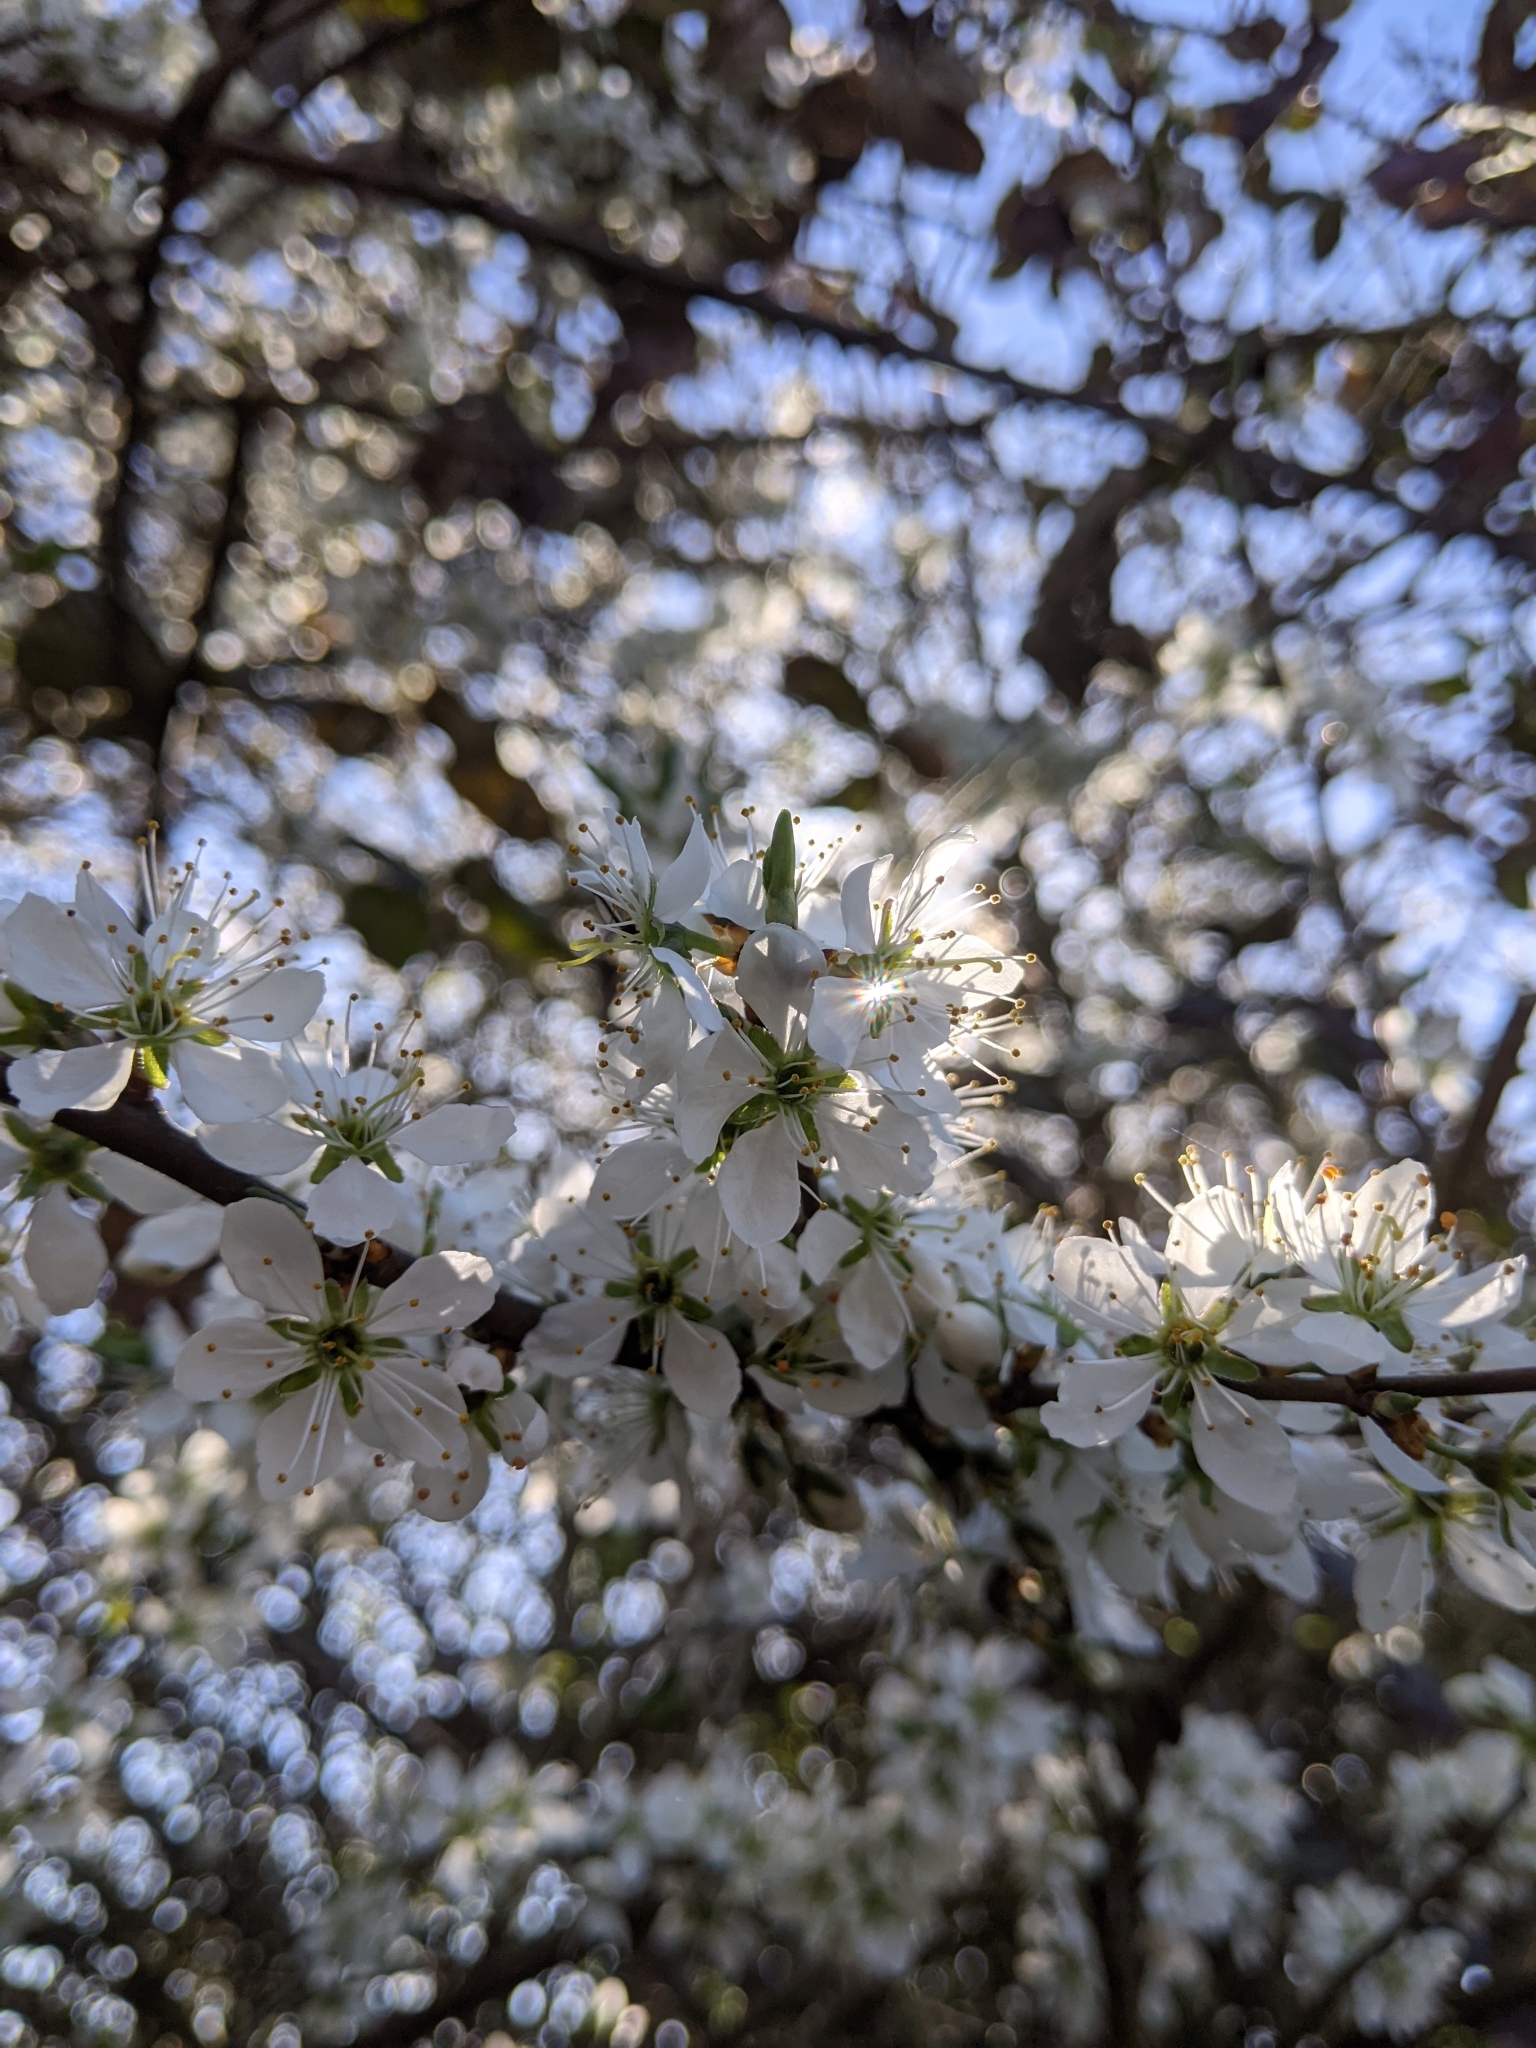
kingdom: Plantae
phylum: Tracheophyta
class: Magnoliopsida
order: Rosales
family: Rosaceae
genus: Prunus
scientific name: Prunus spinosa
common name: Blackthorn
